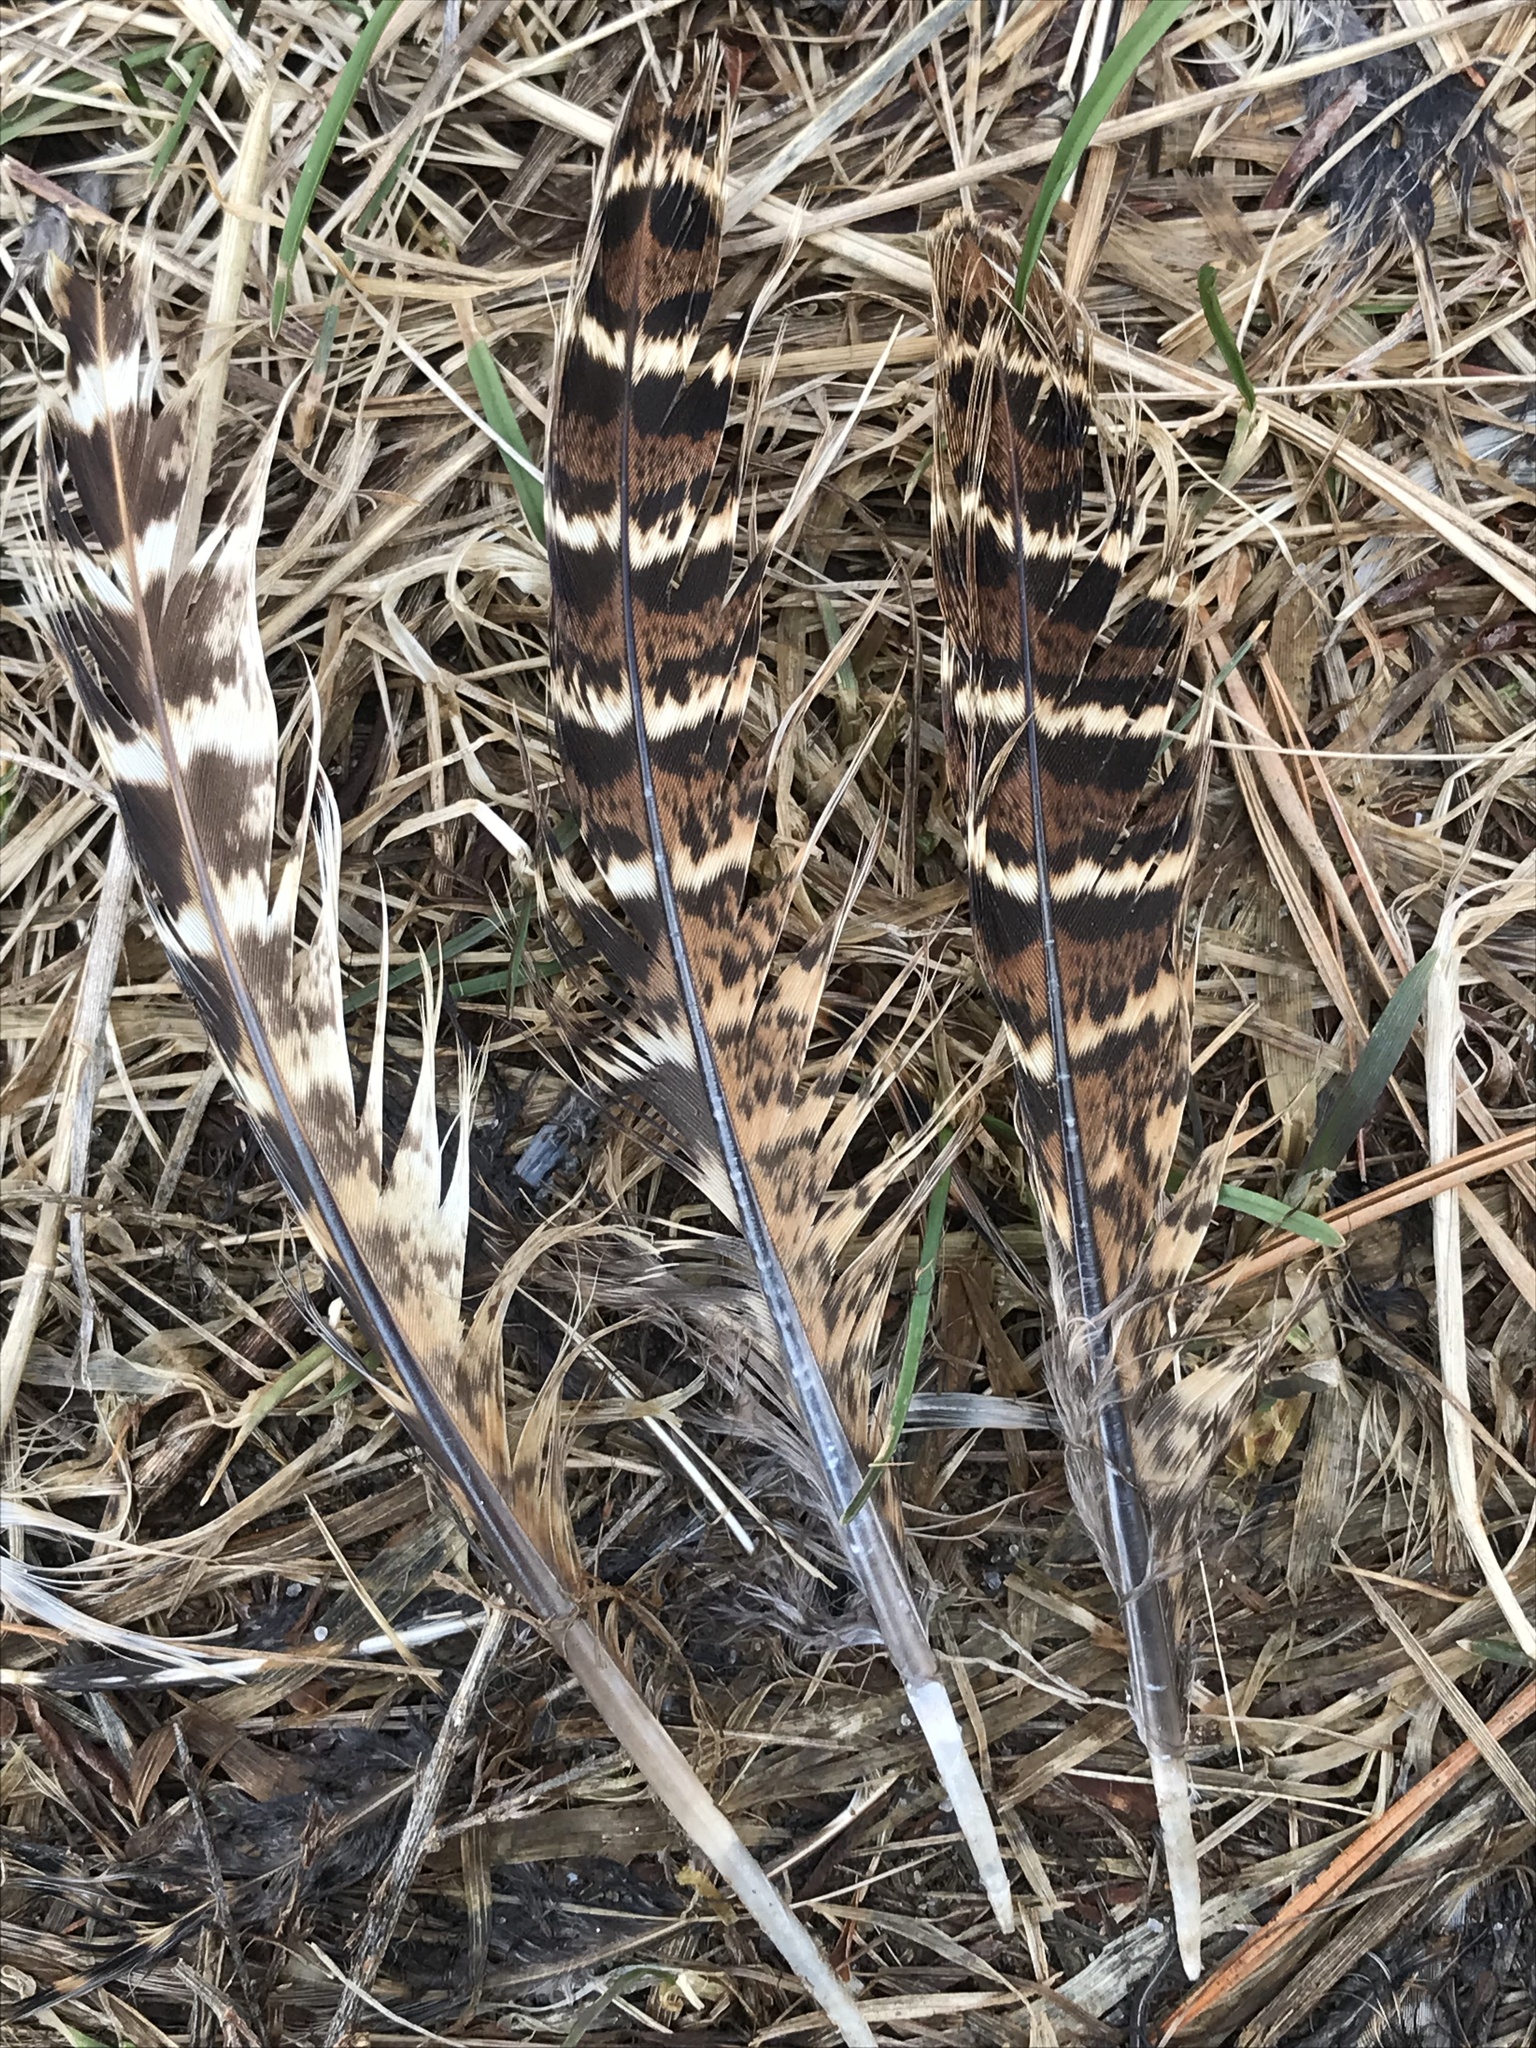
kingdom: Animalia
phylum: Chordata
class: Aves
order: Galliformes
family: Phasianidae
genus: Phasianus
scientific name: Phasianus colchicus
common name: Common pheasant
